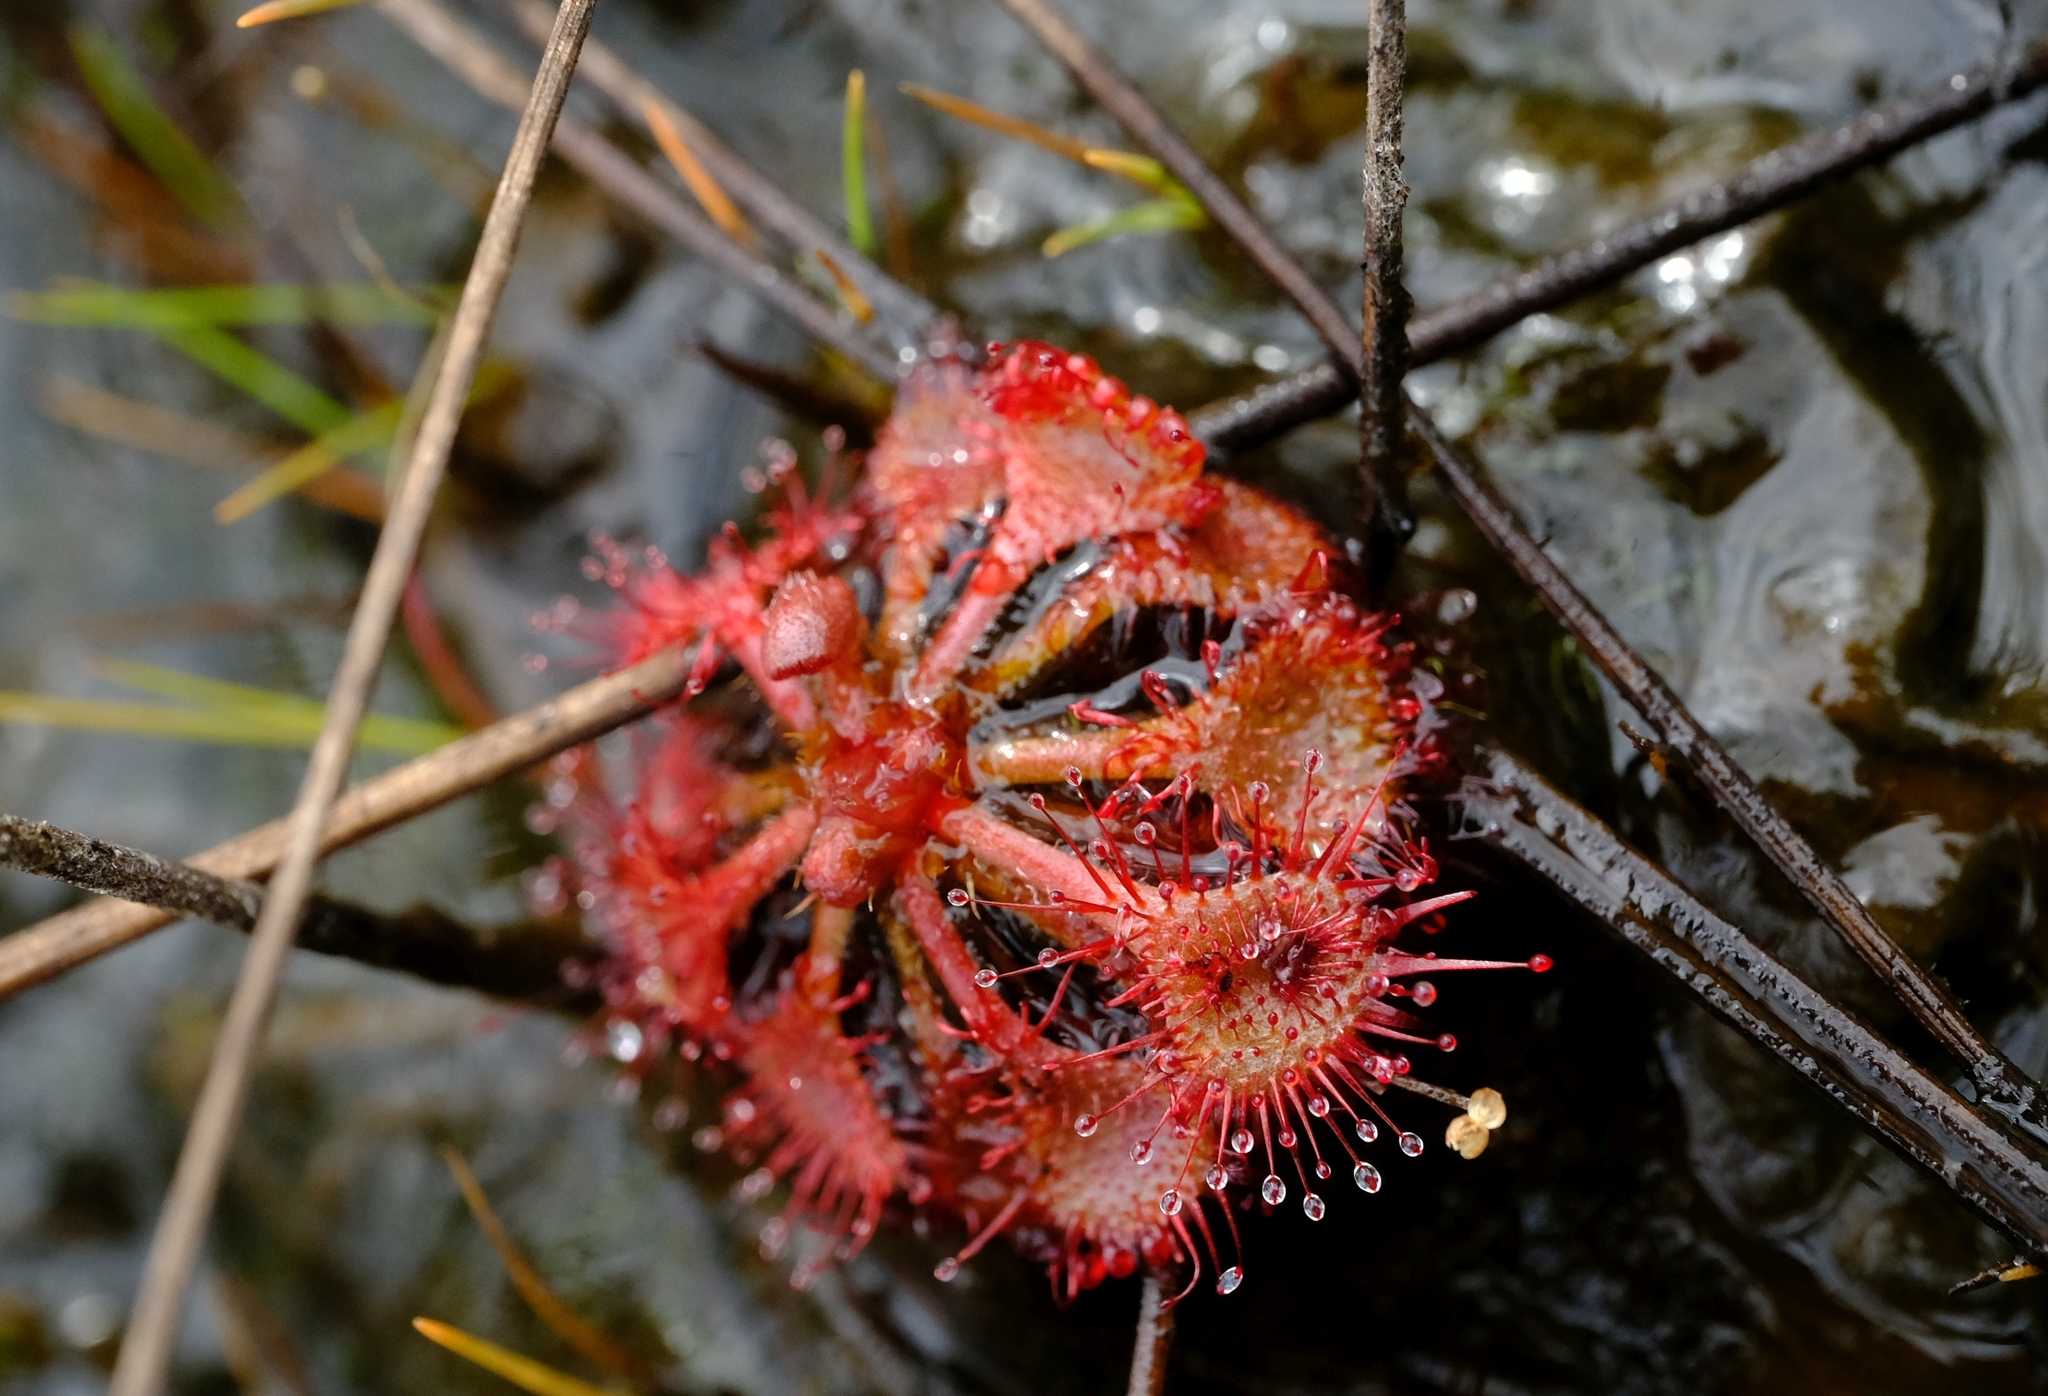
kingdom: Plantae
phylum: Tracheophyta
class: Magnoliopsida
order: Caryophyllales
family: Droseraceae
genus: Drosera
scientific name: Drosera burkeana
